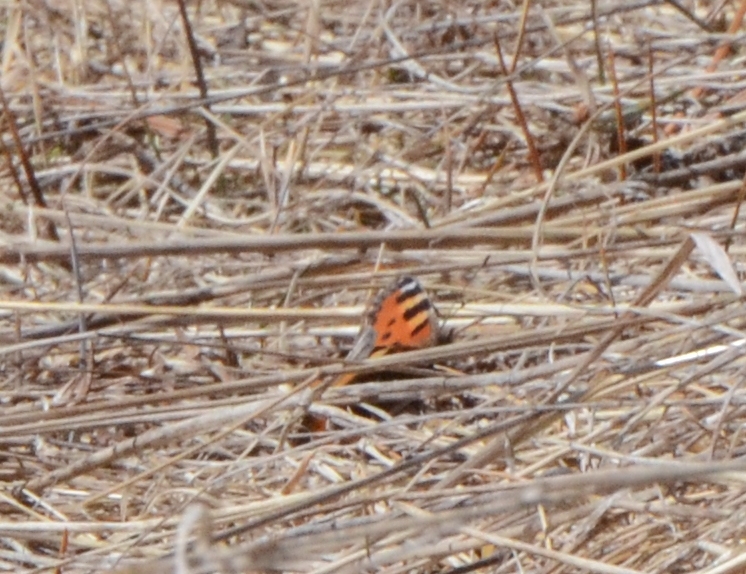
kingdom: Animalia
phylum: Arthropoda
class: Insecta
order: Lepidoptera
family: Nymphalidae
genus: Aglais
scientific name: Aglais urticae
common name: Small tortoiseshell
